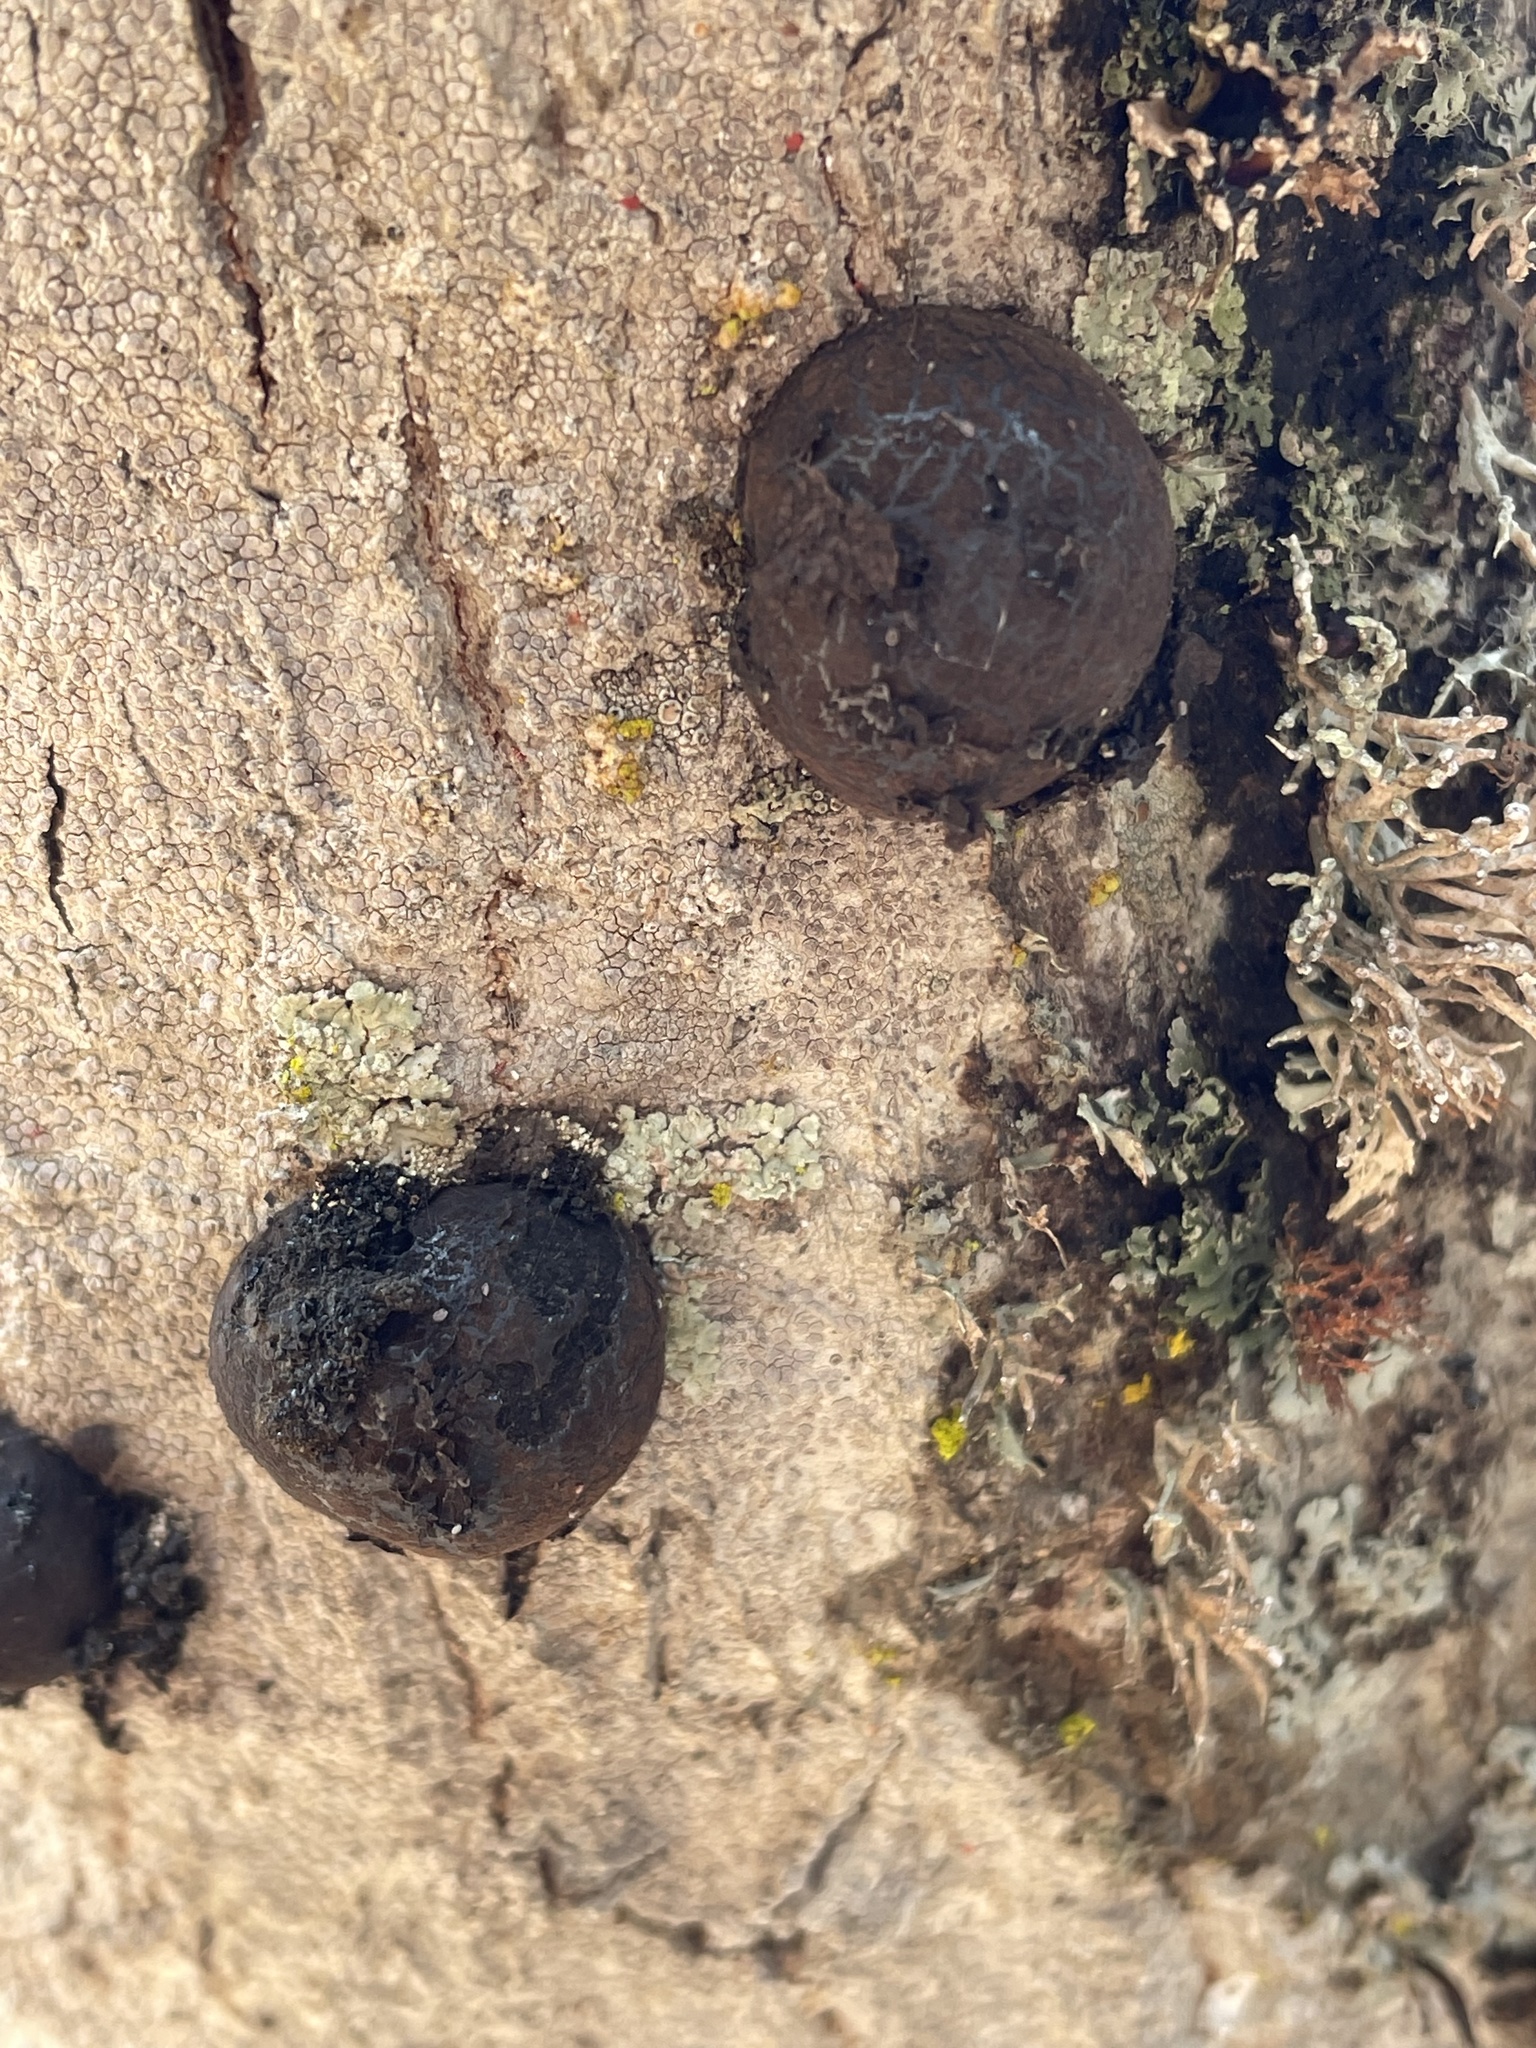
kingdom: Fungi
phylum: Ascomycota
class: Sordariomycetes
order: Xylariales
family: Hypoxylaceae
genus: Annulohypoxylon
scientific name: Annulohypoxylon thouarsianum
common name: Cramp balls
